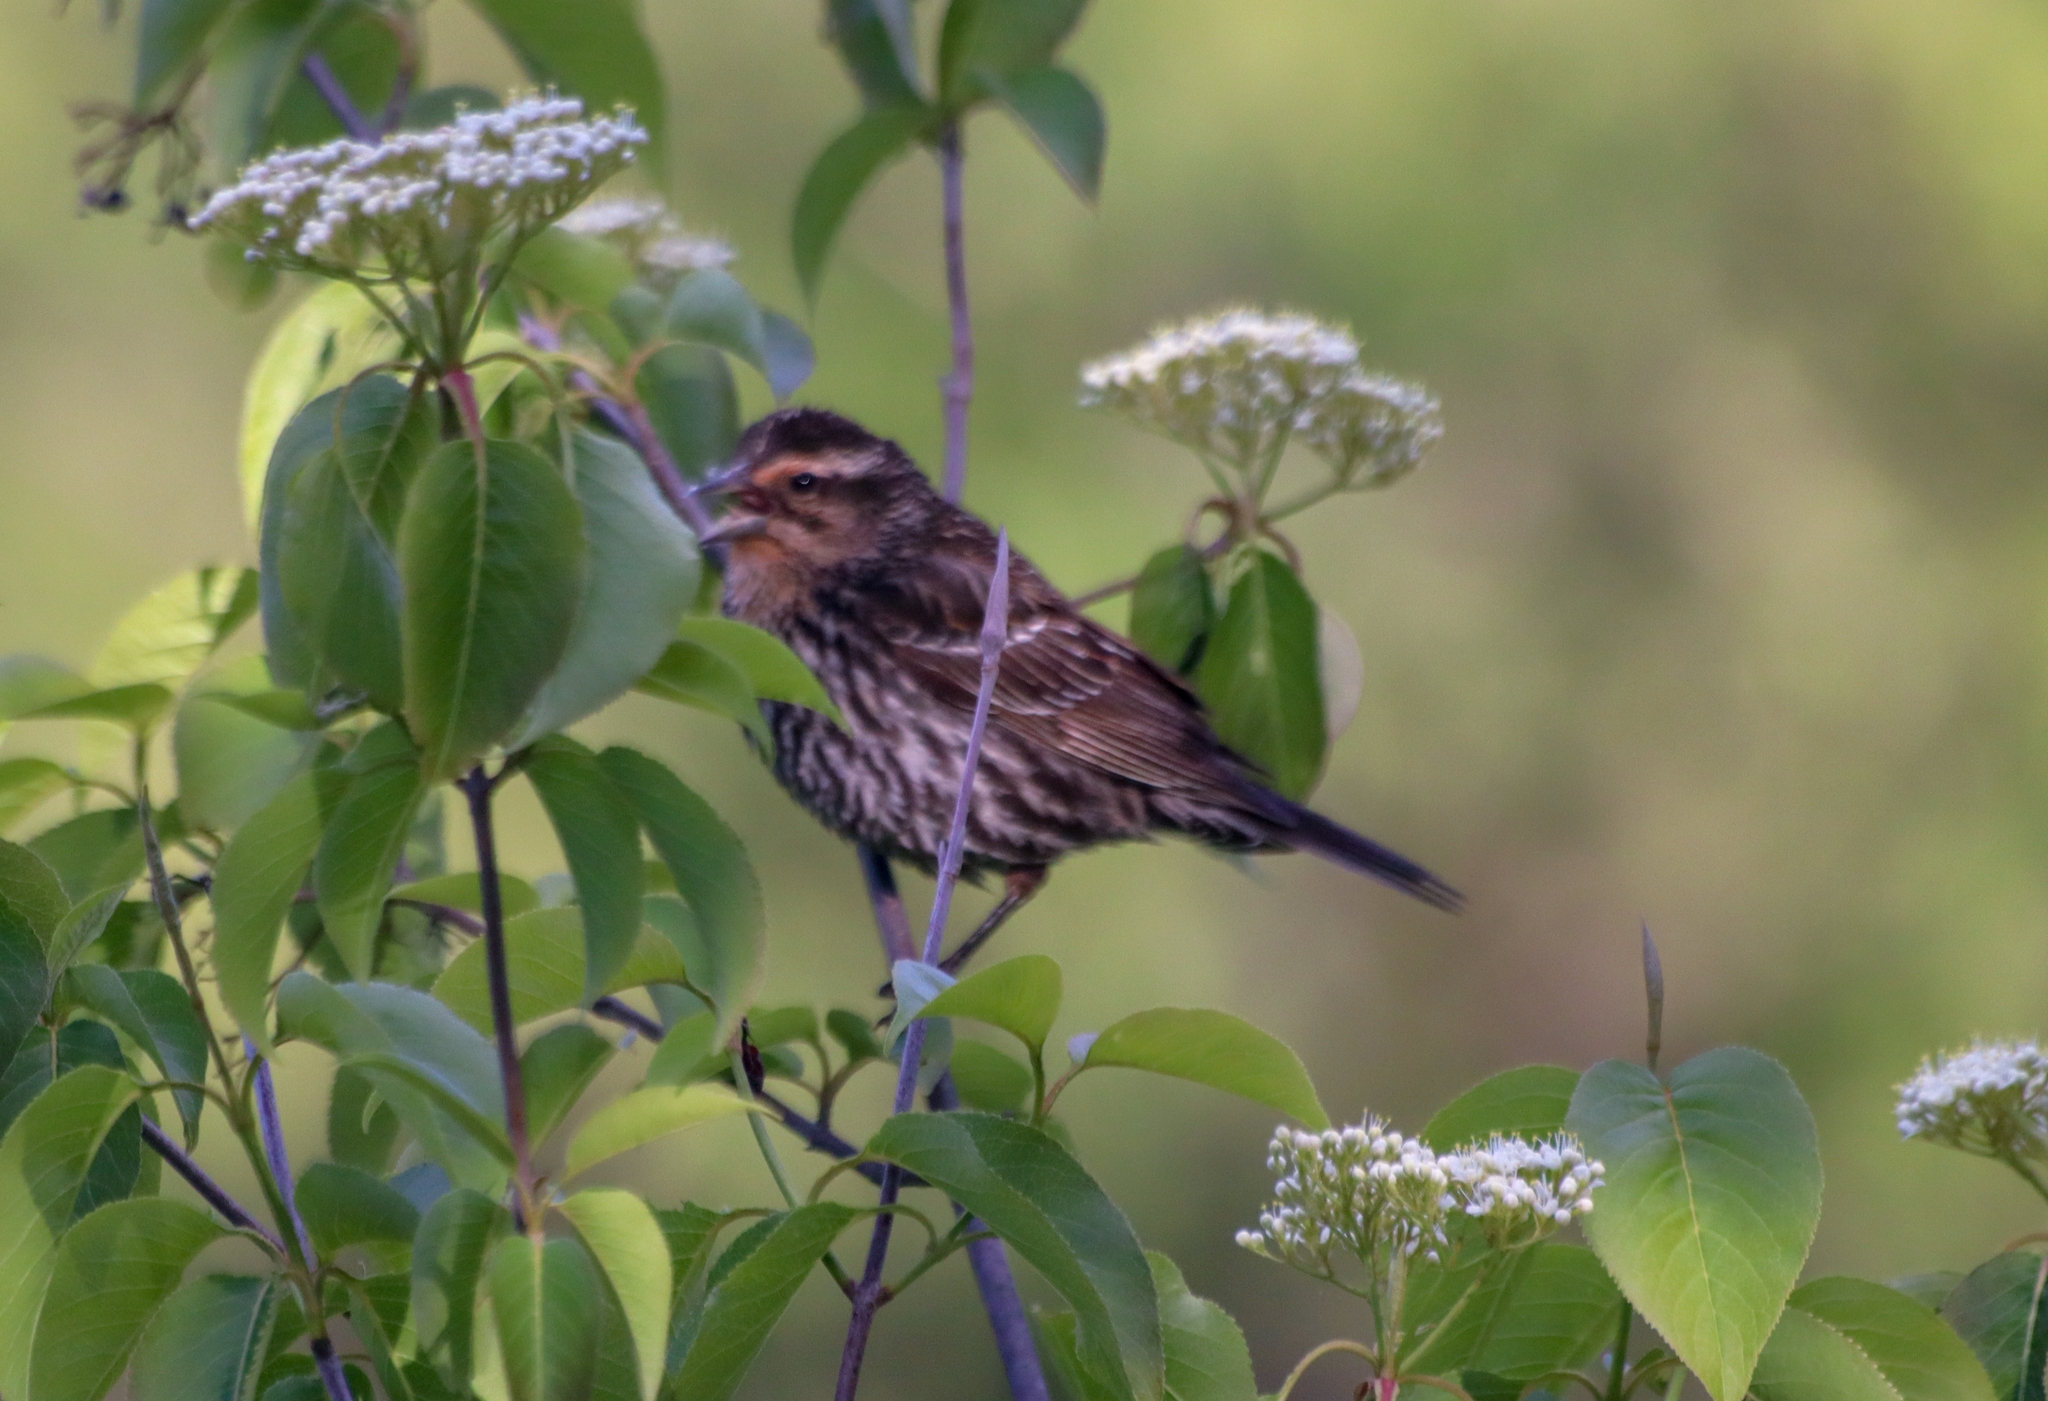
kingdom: Animalia
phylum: Chordata
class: Aves
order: Passeriformes
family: Icteridae
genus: Agelaius
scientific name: Agelaius phoeniceus
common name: Red-winged blackbird
